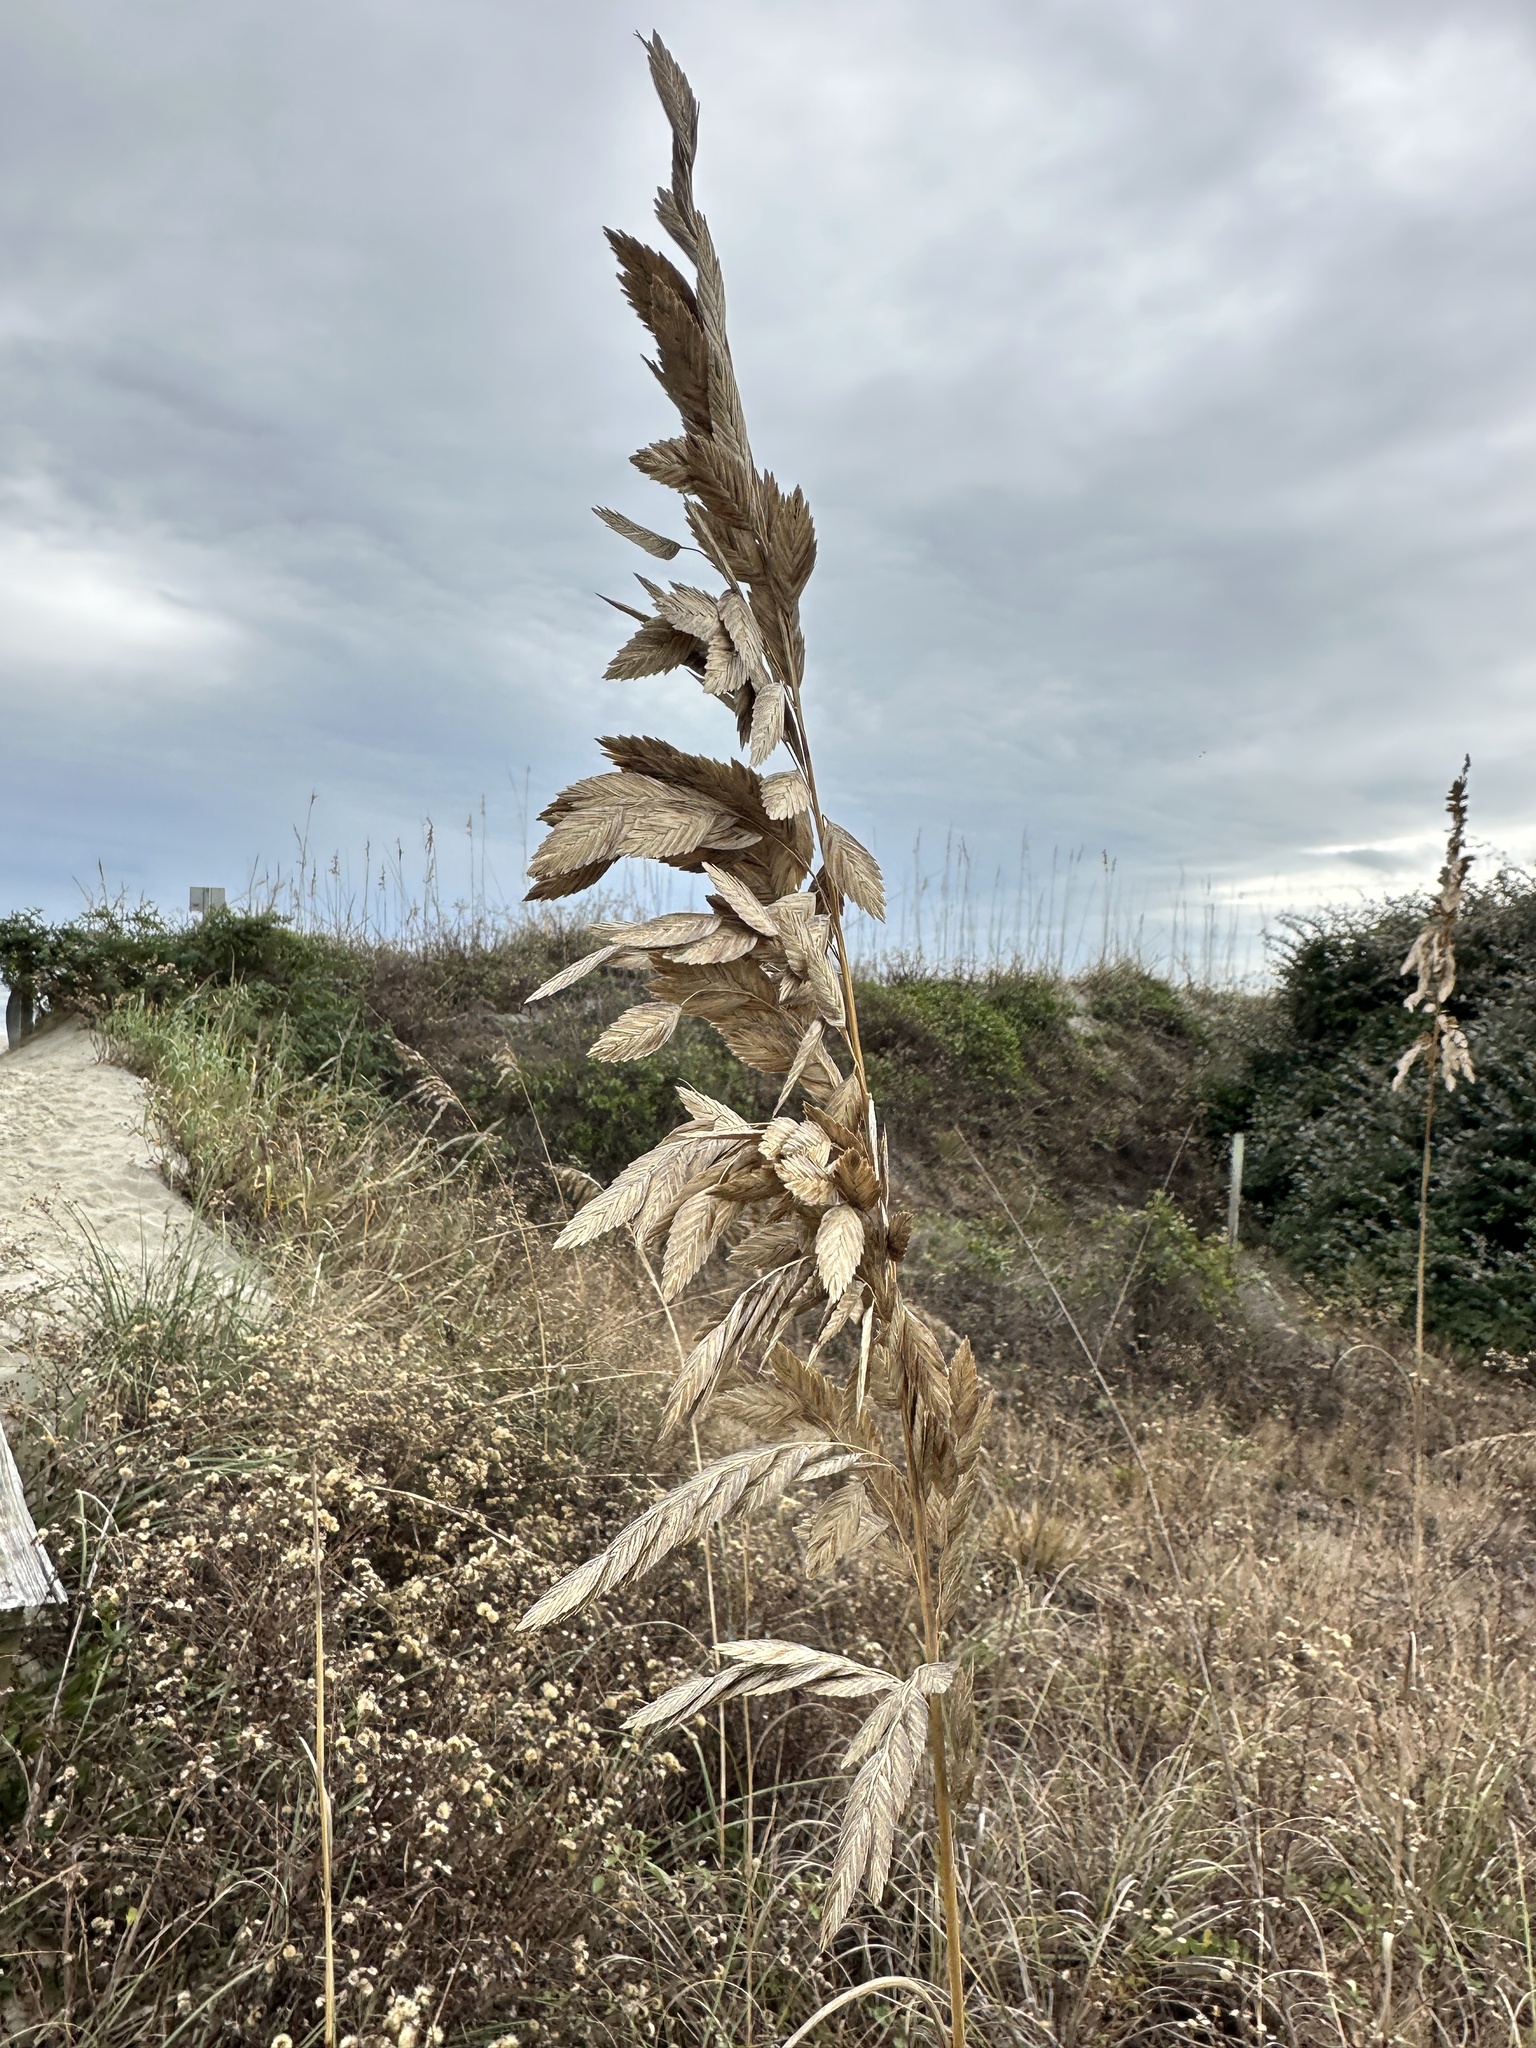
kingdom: Plantae
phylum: Tracheophyta
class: Liliopsida
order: Poales
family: Poaceae
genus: Uniola
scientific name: Uniola paniculata
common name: Seaside-oats
